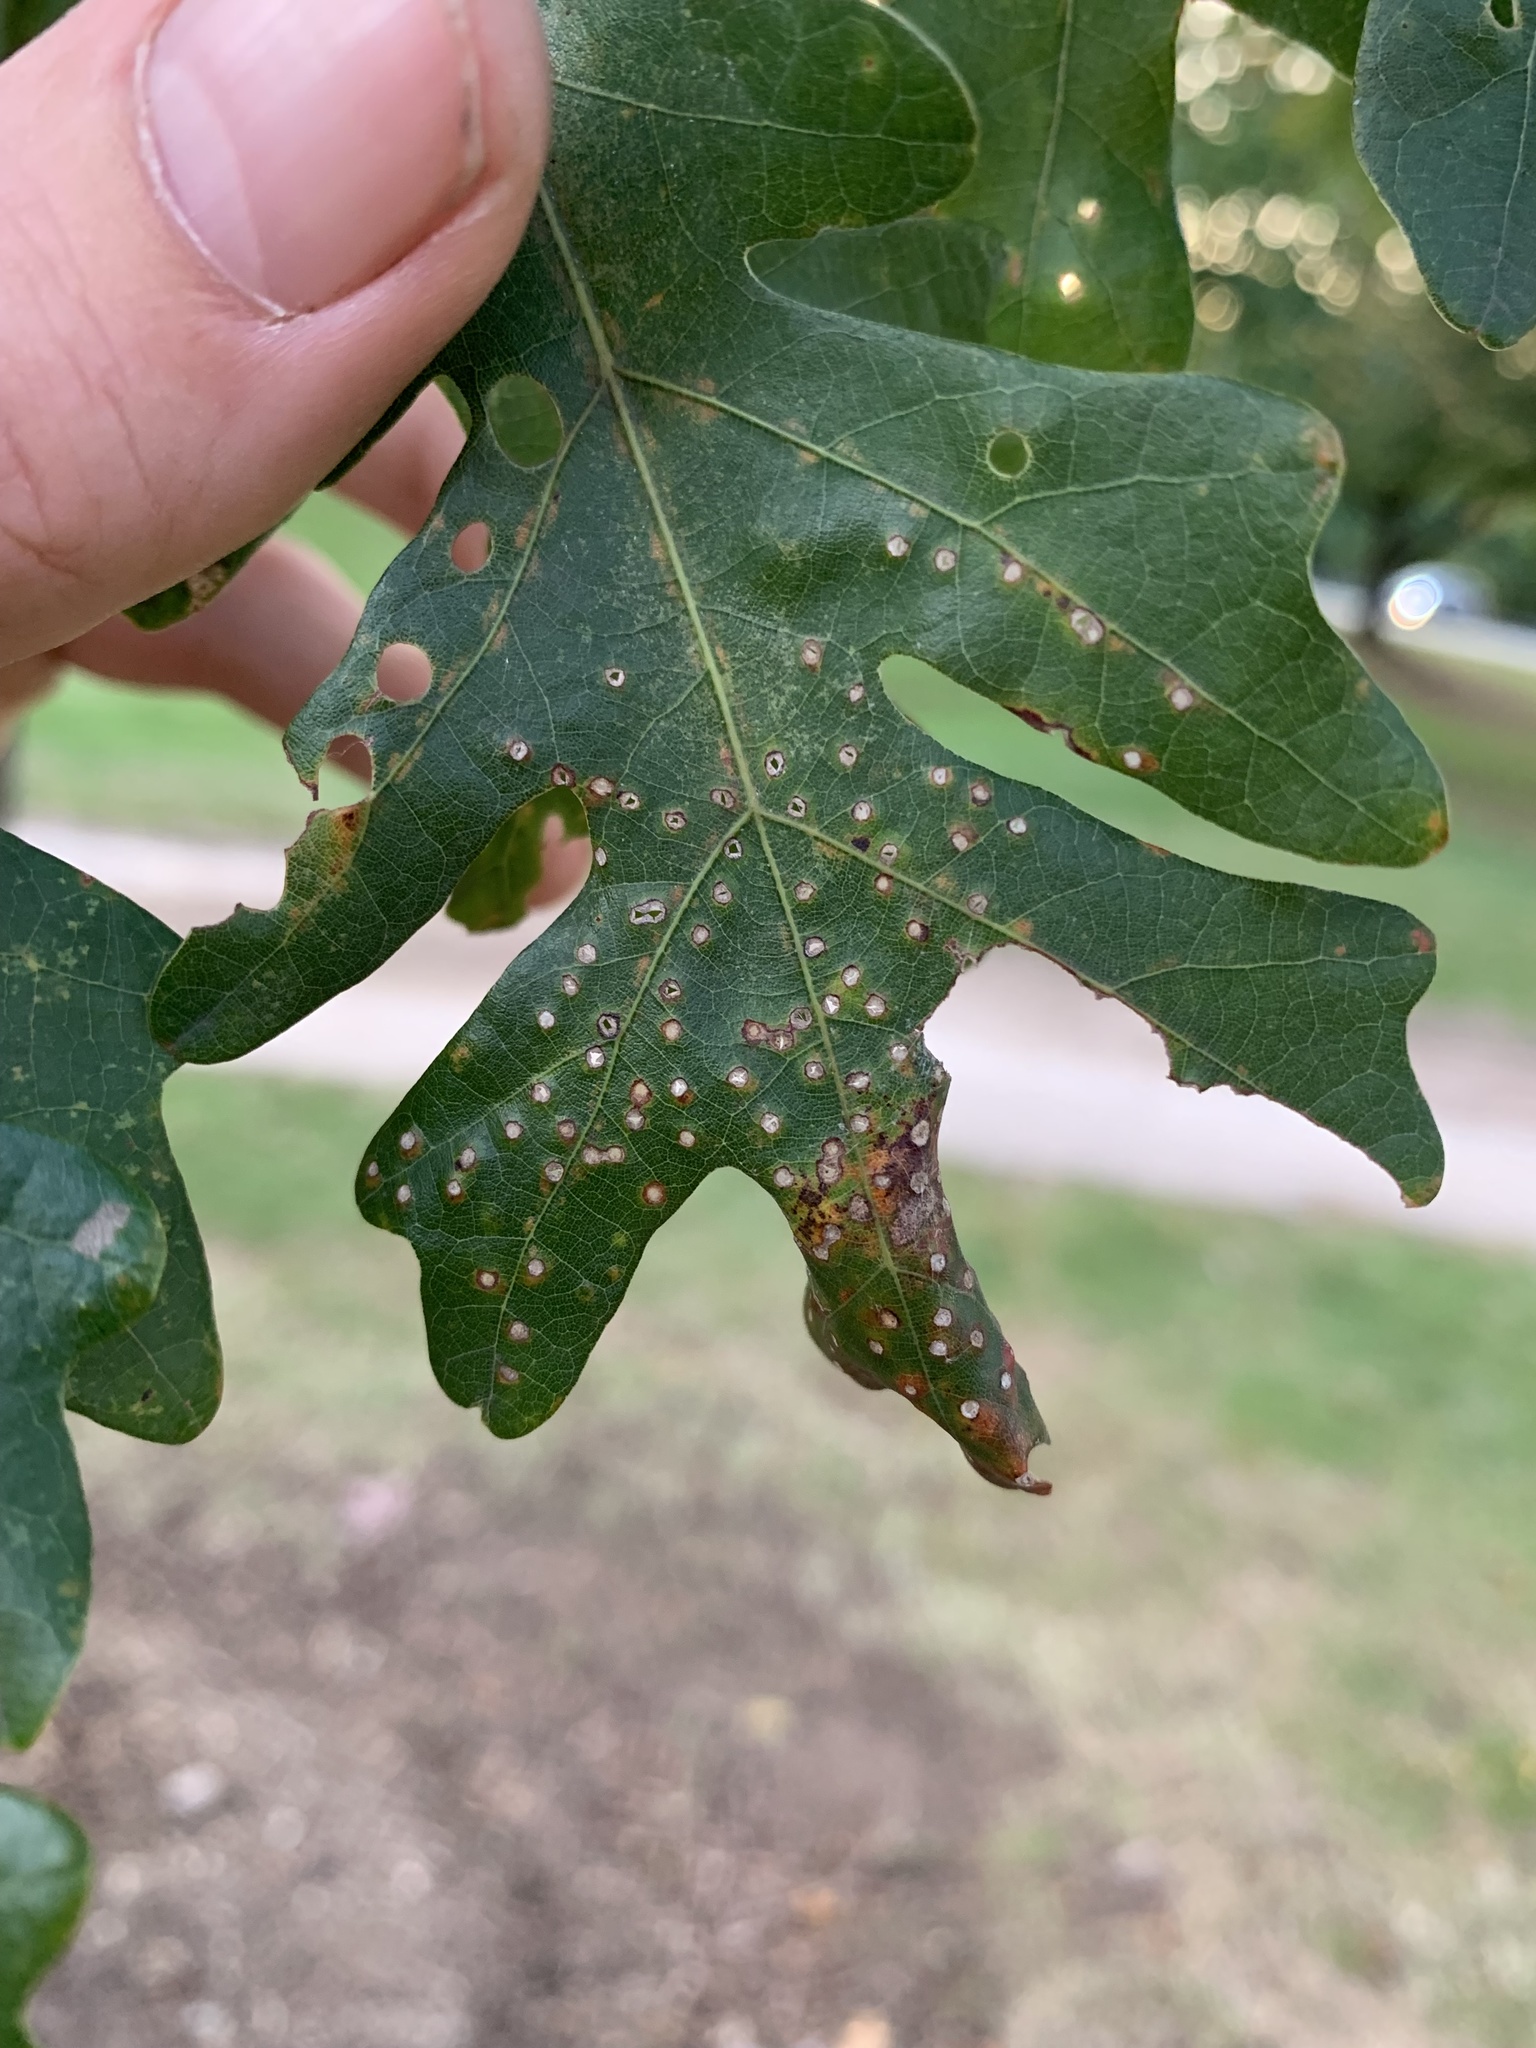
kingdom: Animalia
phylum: Arthropoda
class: Insecta
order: Hymenoptera
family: Cynipidae
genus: Neuroterus
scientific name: Neuroterus
